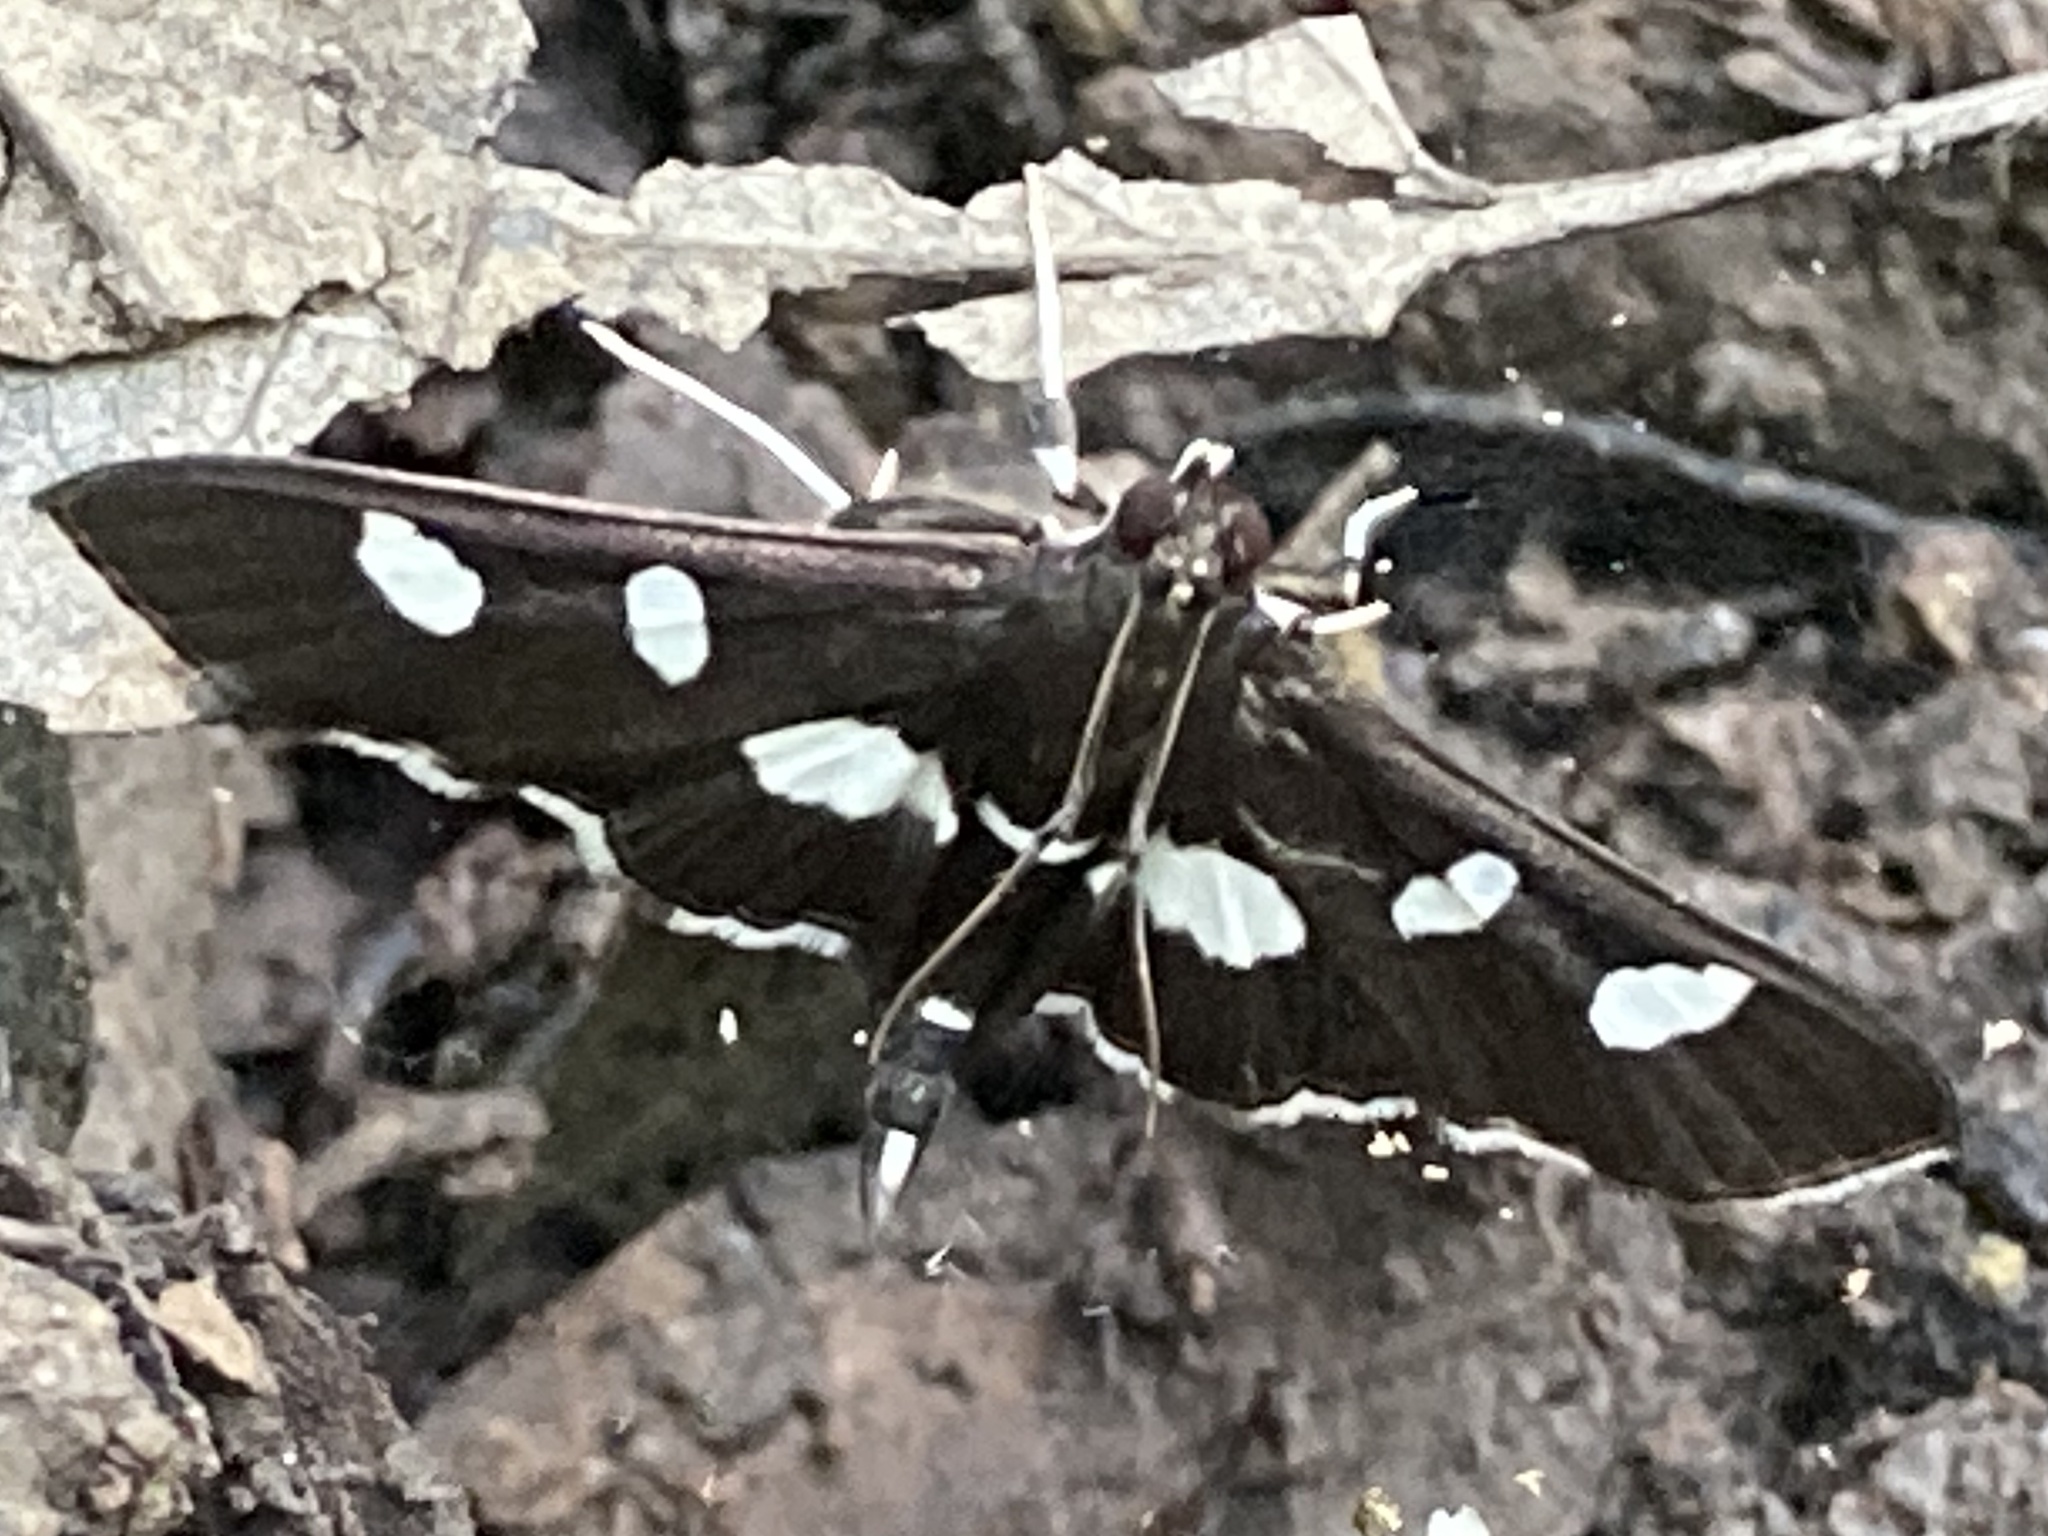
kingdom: Animalia
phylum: Arthropoda
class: Insecta
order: Lepidoptera
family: Crambidae
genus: Desmia
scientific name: Desmia
